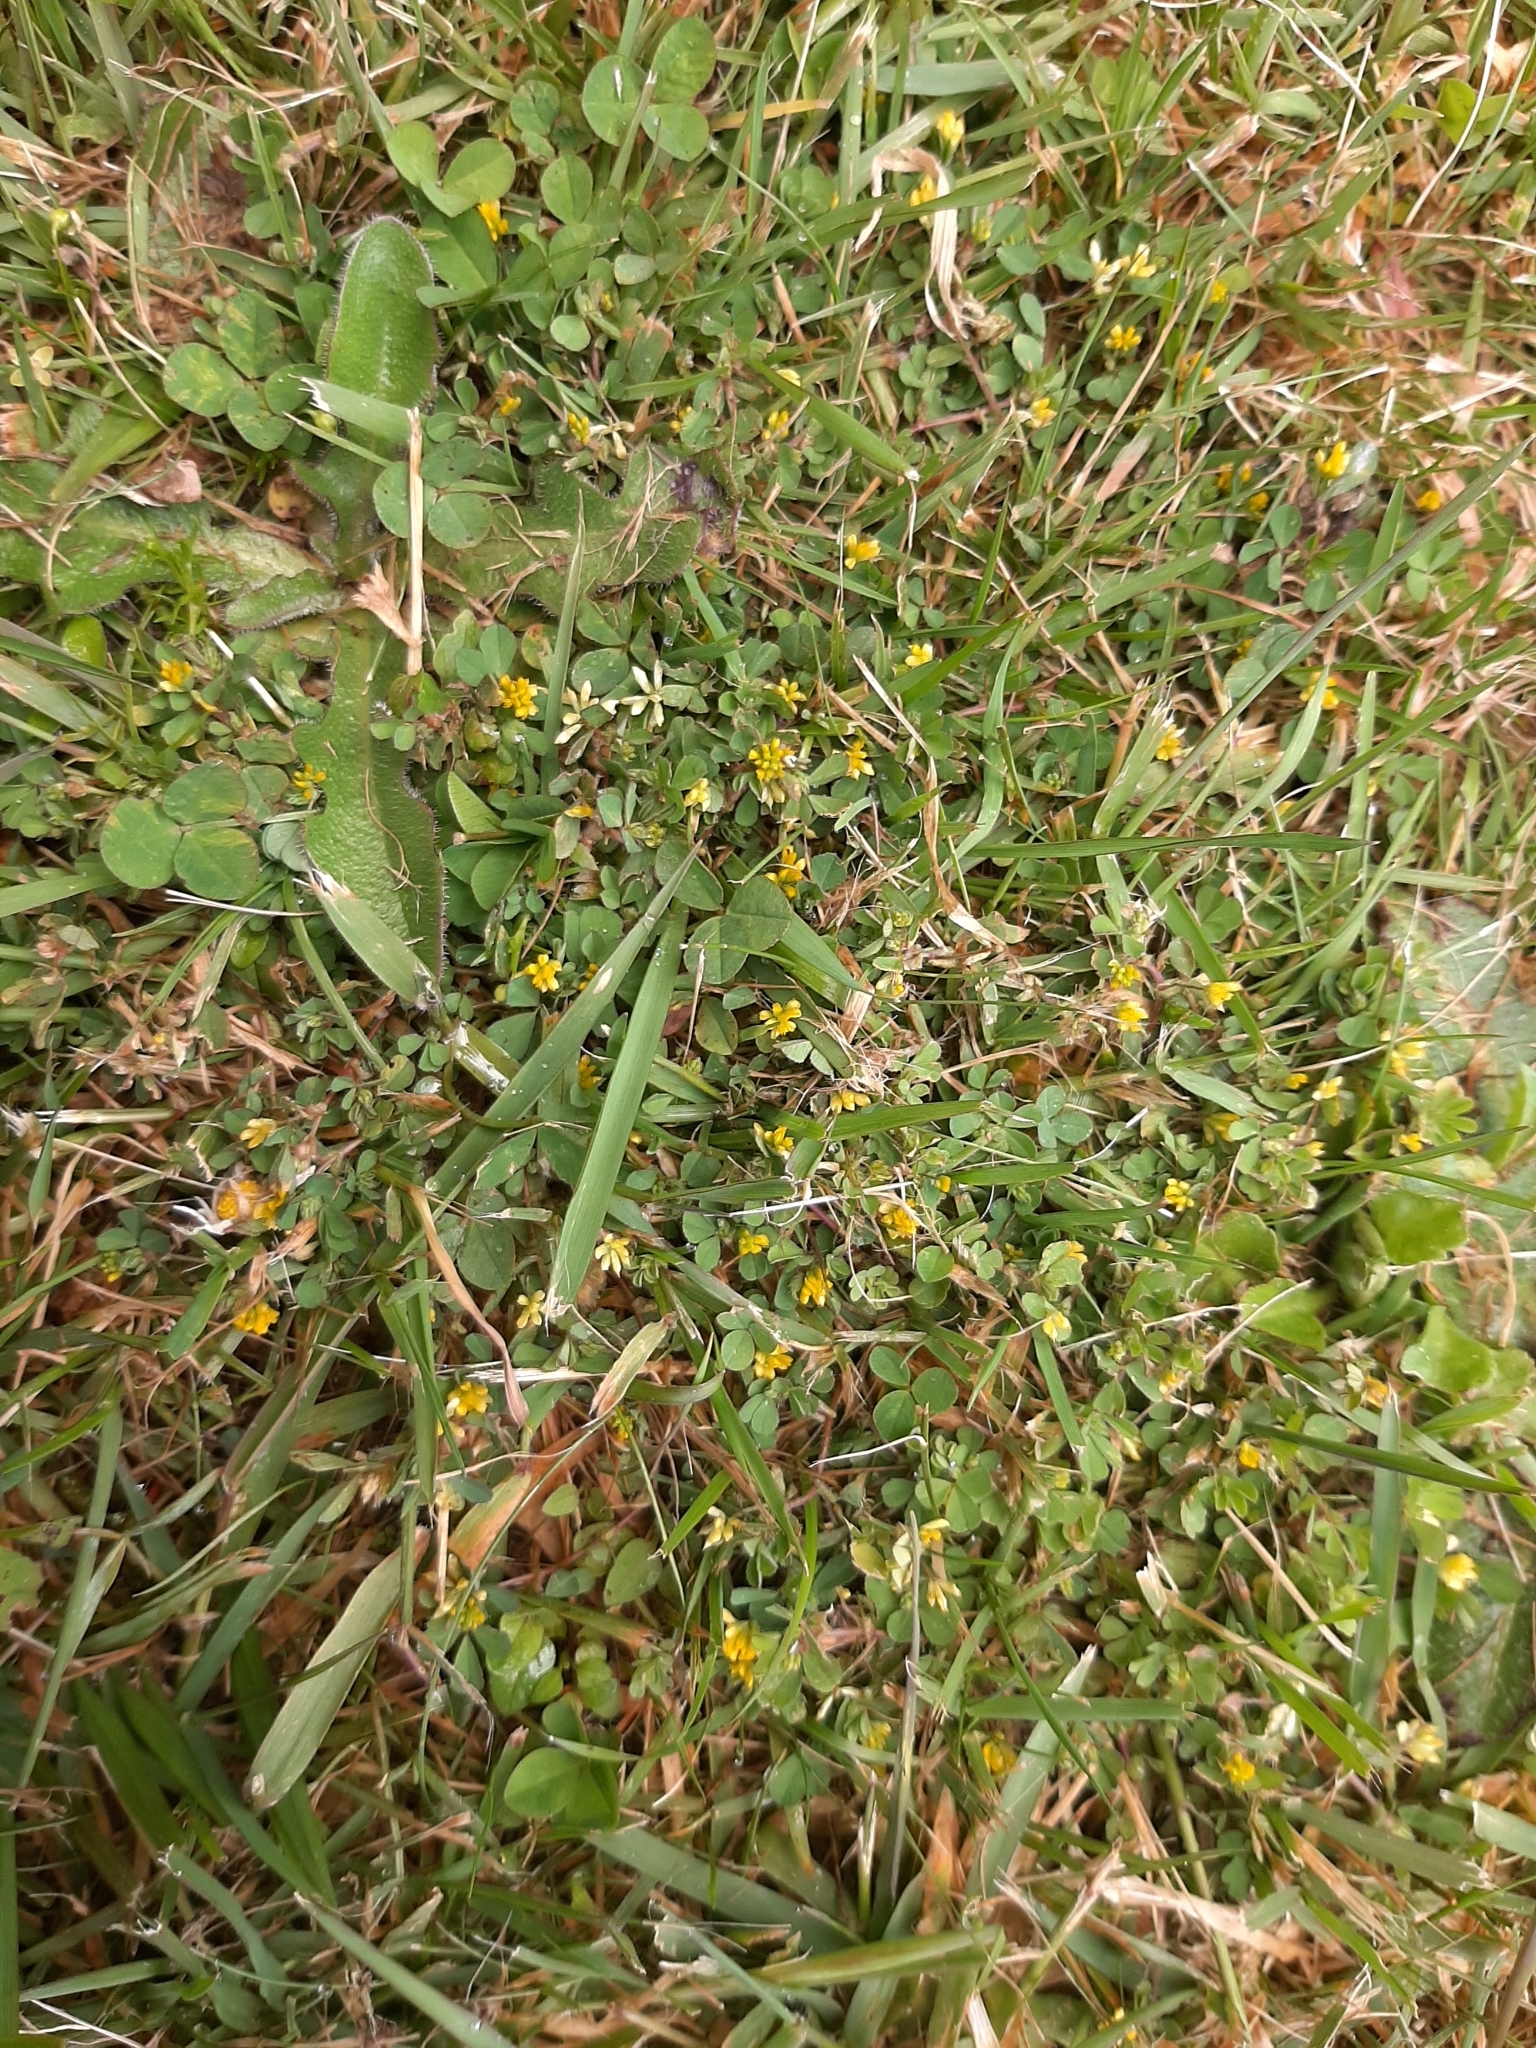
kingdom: Plantae
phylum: Tracheophyta
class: Magnoliopsida
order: Fabales
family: Fabaceae
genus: Trifolium
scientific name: Trifolium dubium
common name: Suckling clover
